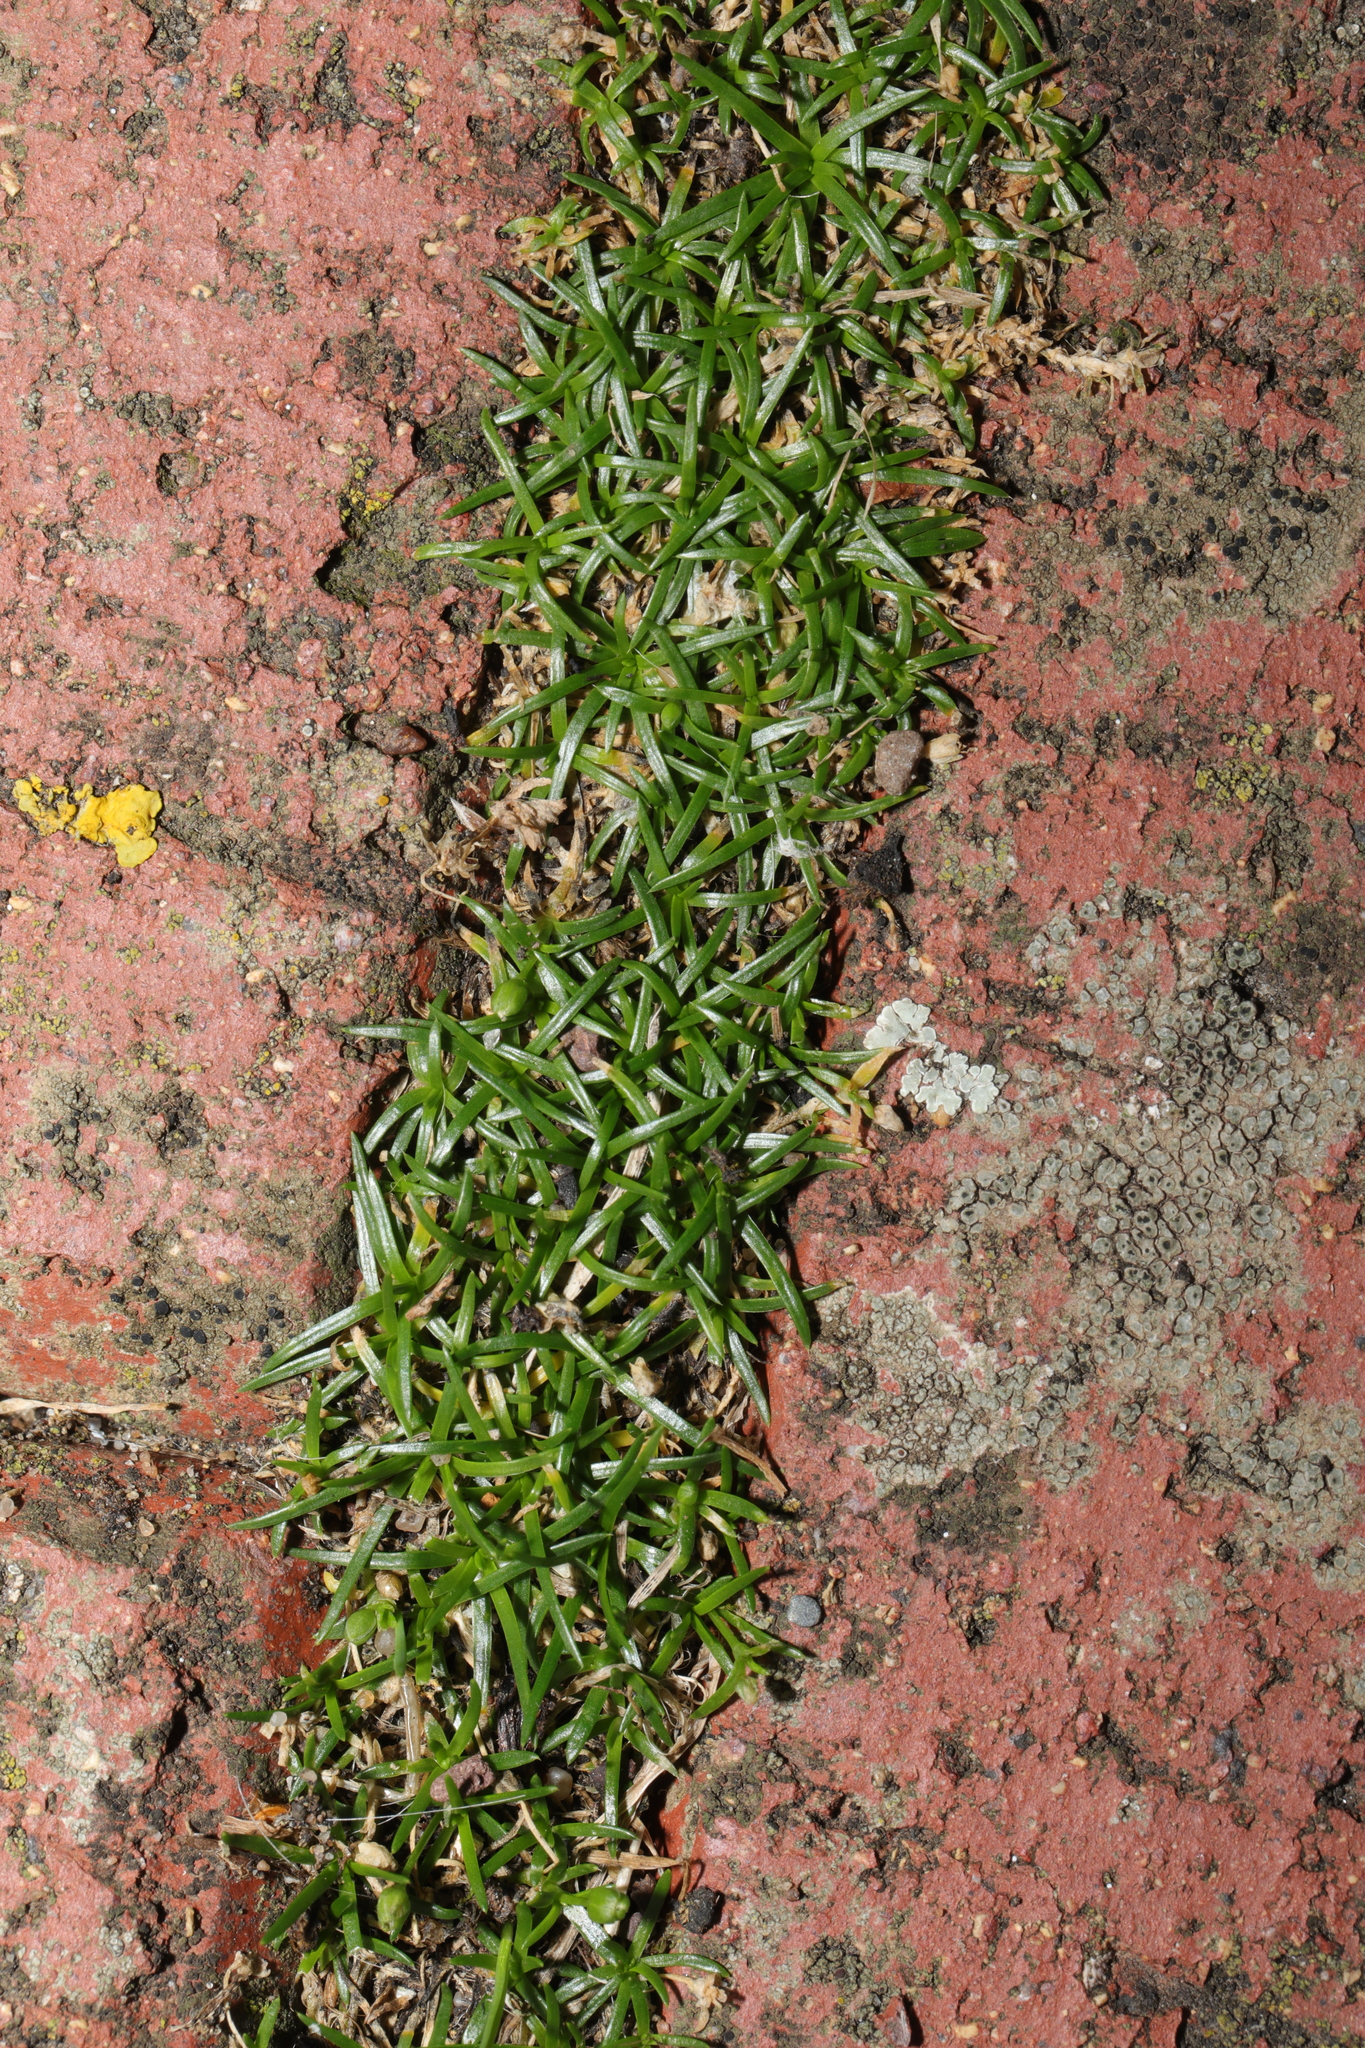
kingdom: Plantae
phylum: Tracheophyta
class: Magnoliopsida
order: Caryophyllales
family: Caryophyllaceae
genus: Sagina
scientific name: Sagina procumbens
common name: Procumbent pearlwort
